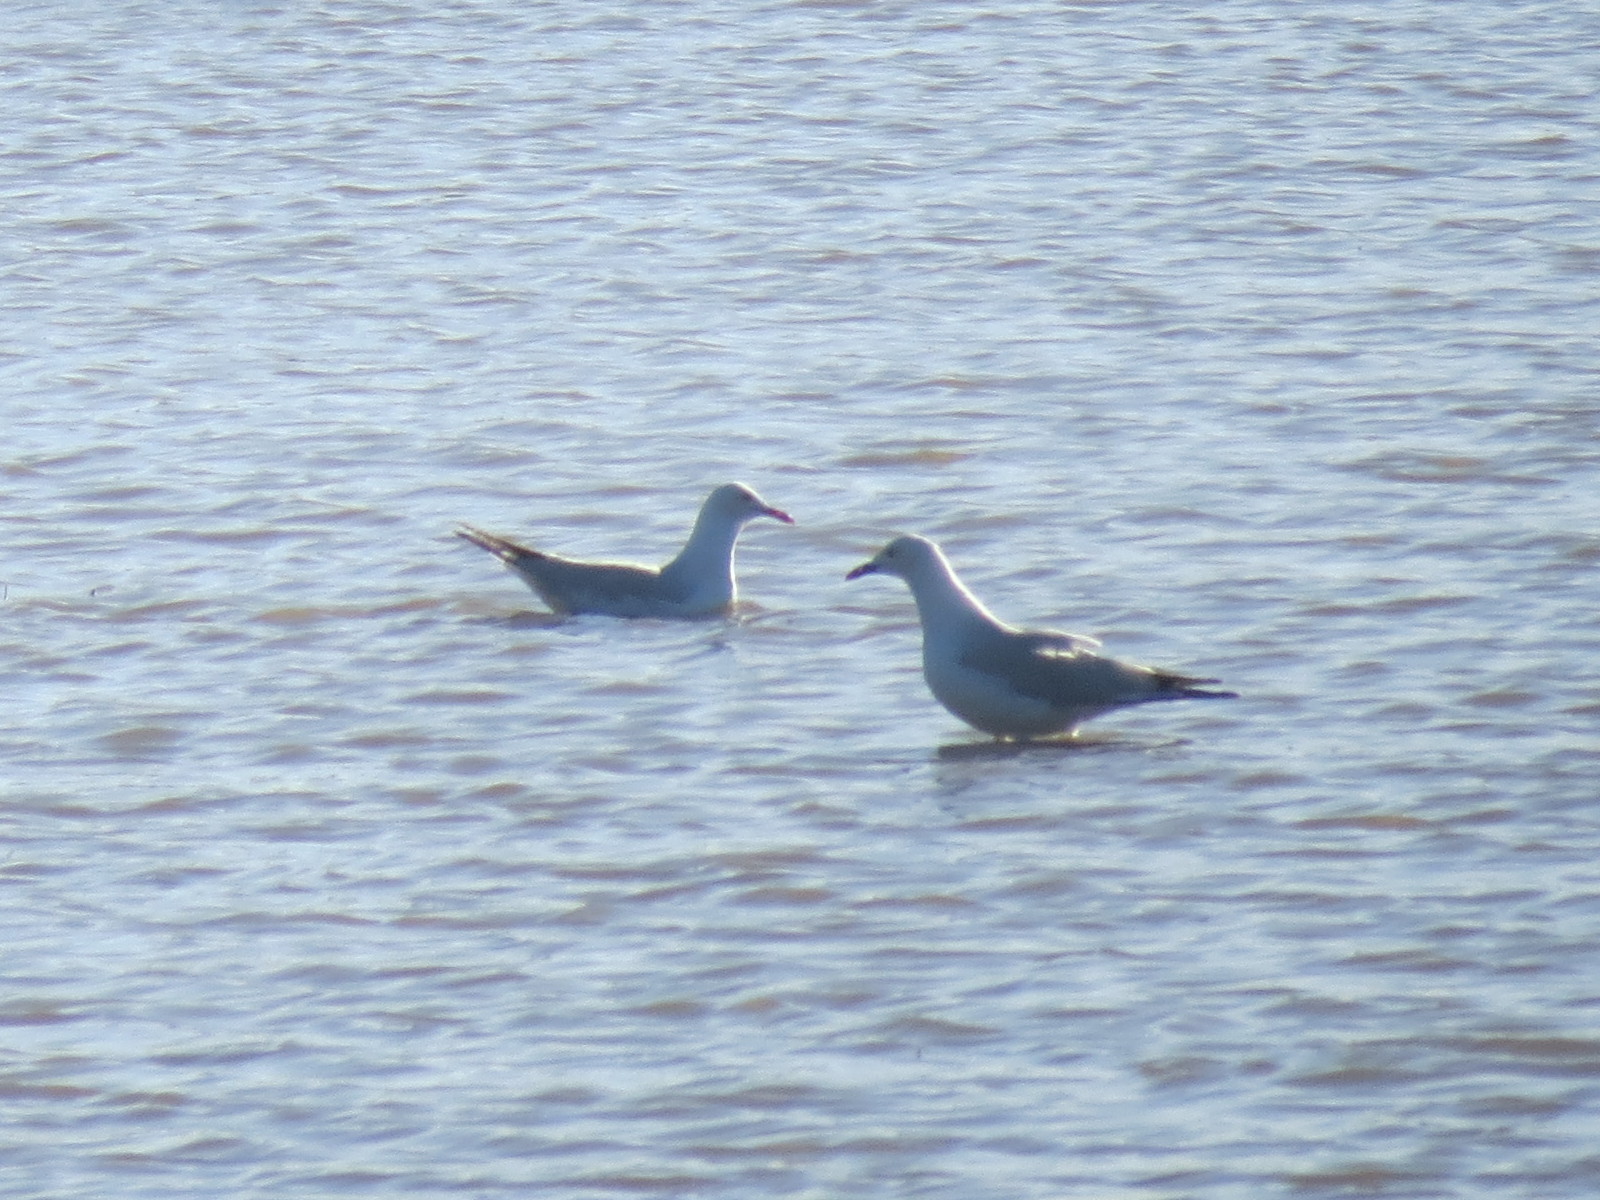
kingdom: Animalia
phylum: Chordata
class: Aves
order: Charadriiformes
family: Laridae
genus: Chroicocephalus
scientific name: Chroicocephalus novaehollandiae
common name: Silver gull
